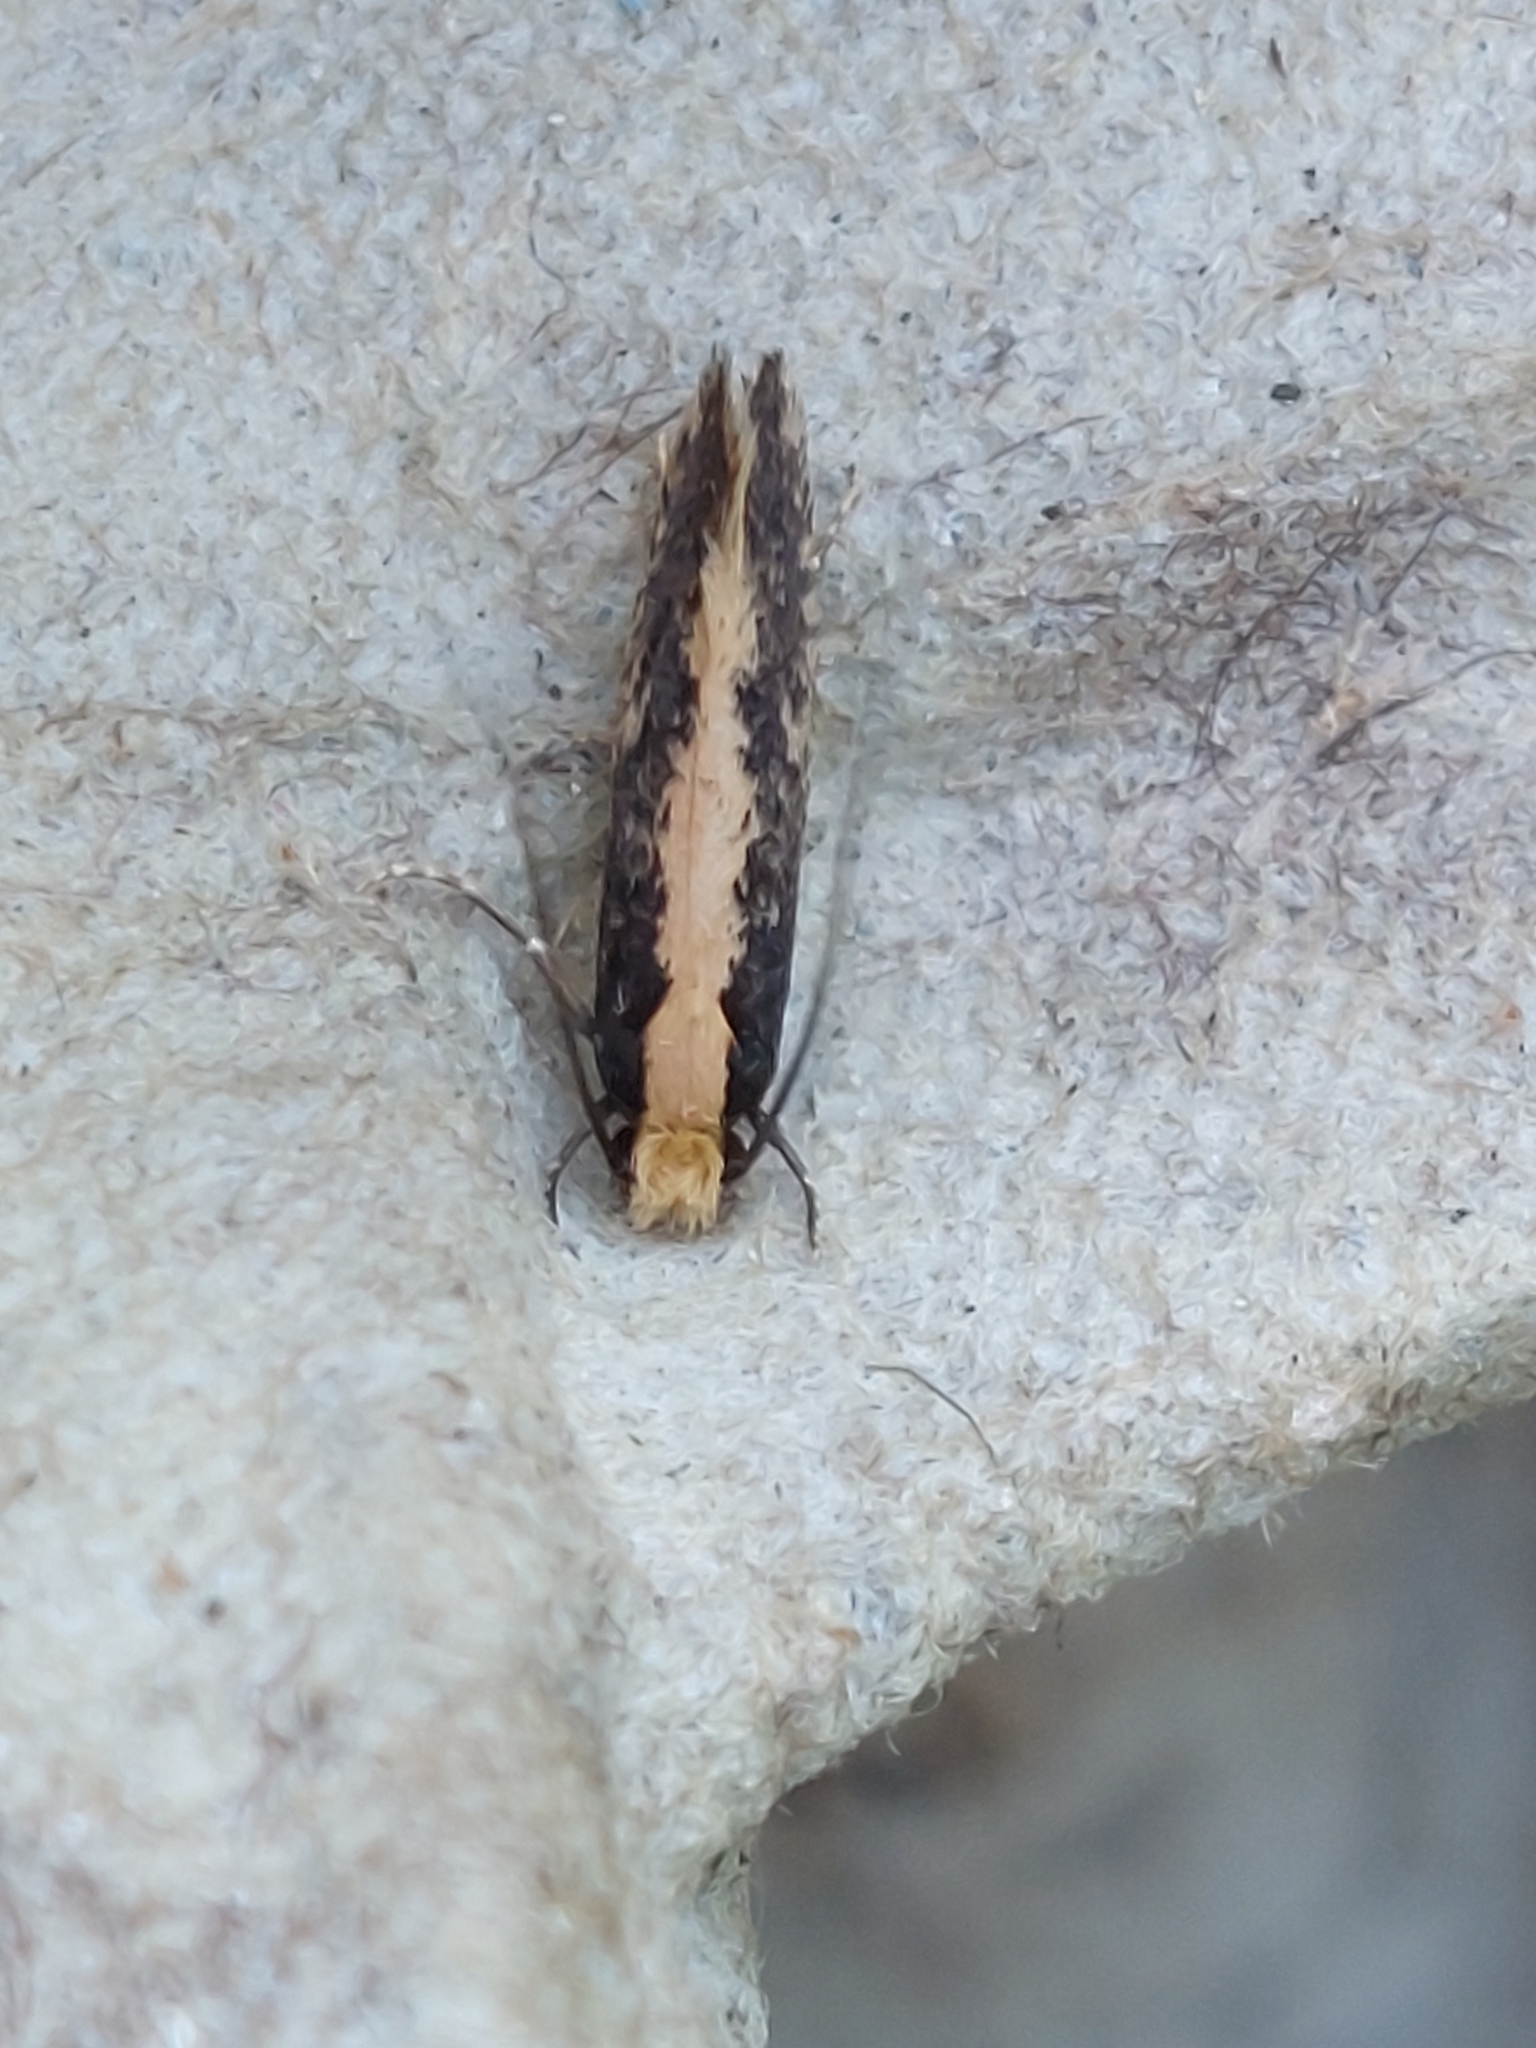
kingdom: Animalia
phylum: Arthropoda
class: Insecta
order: Lepidoptera
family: Tineidae
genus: Monopis
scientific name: Monopis crocicapitella
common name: Moth
